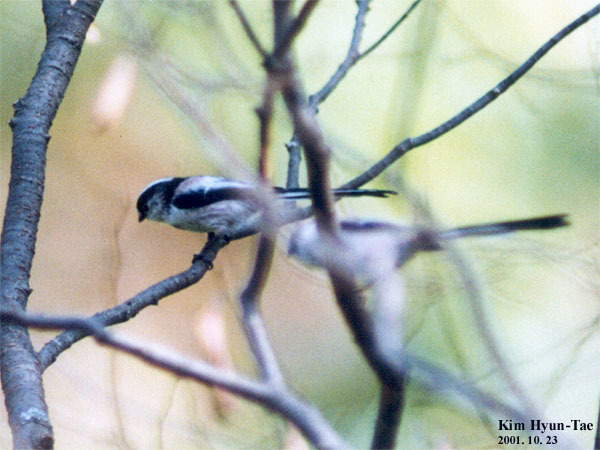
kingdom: Animalia
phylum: Chordata
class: Aves
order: Passeriformes
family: Aegithalidae
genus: Aegithalos
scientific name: Aegithalos caudatus
